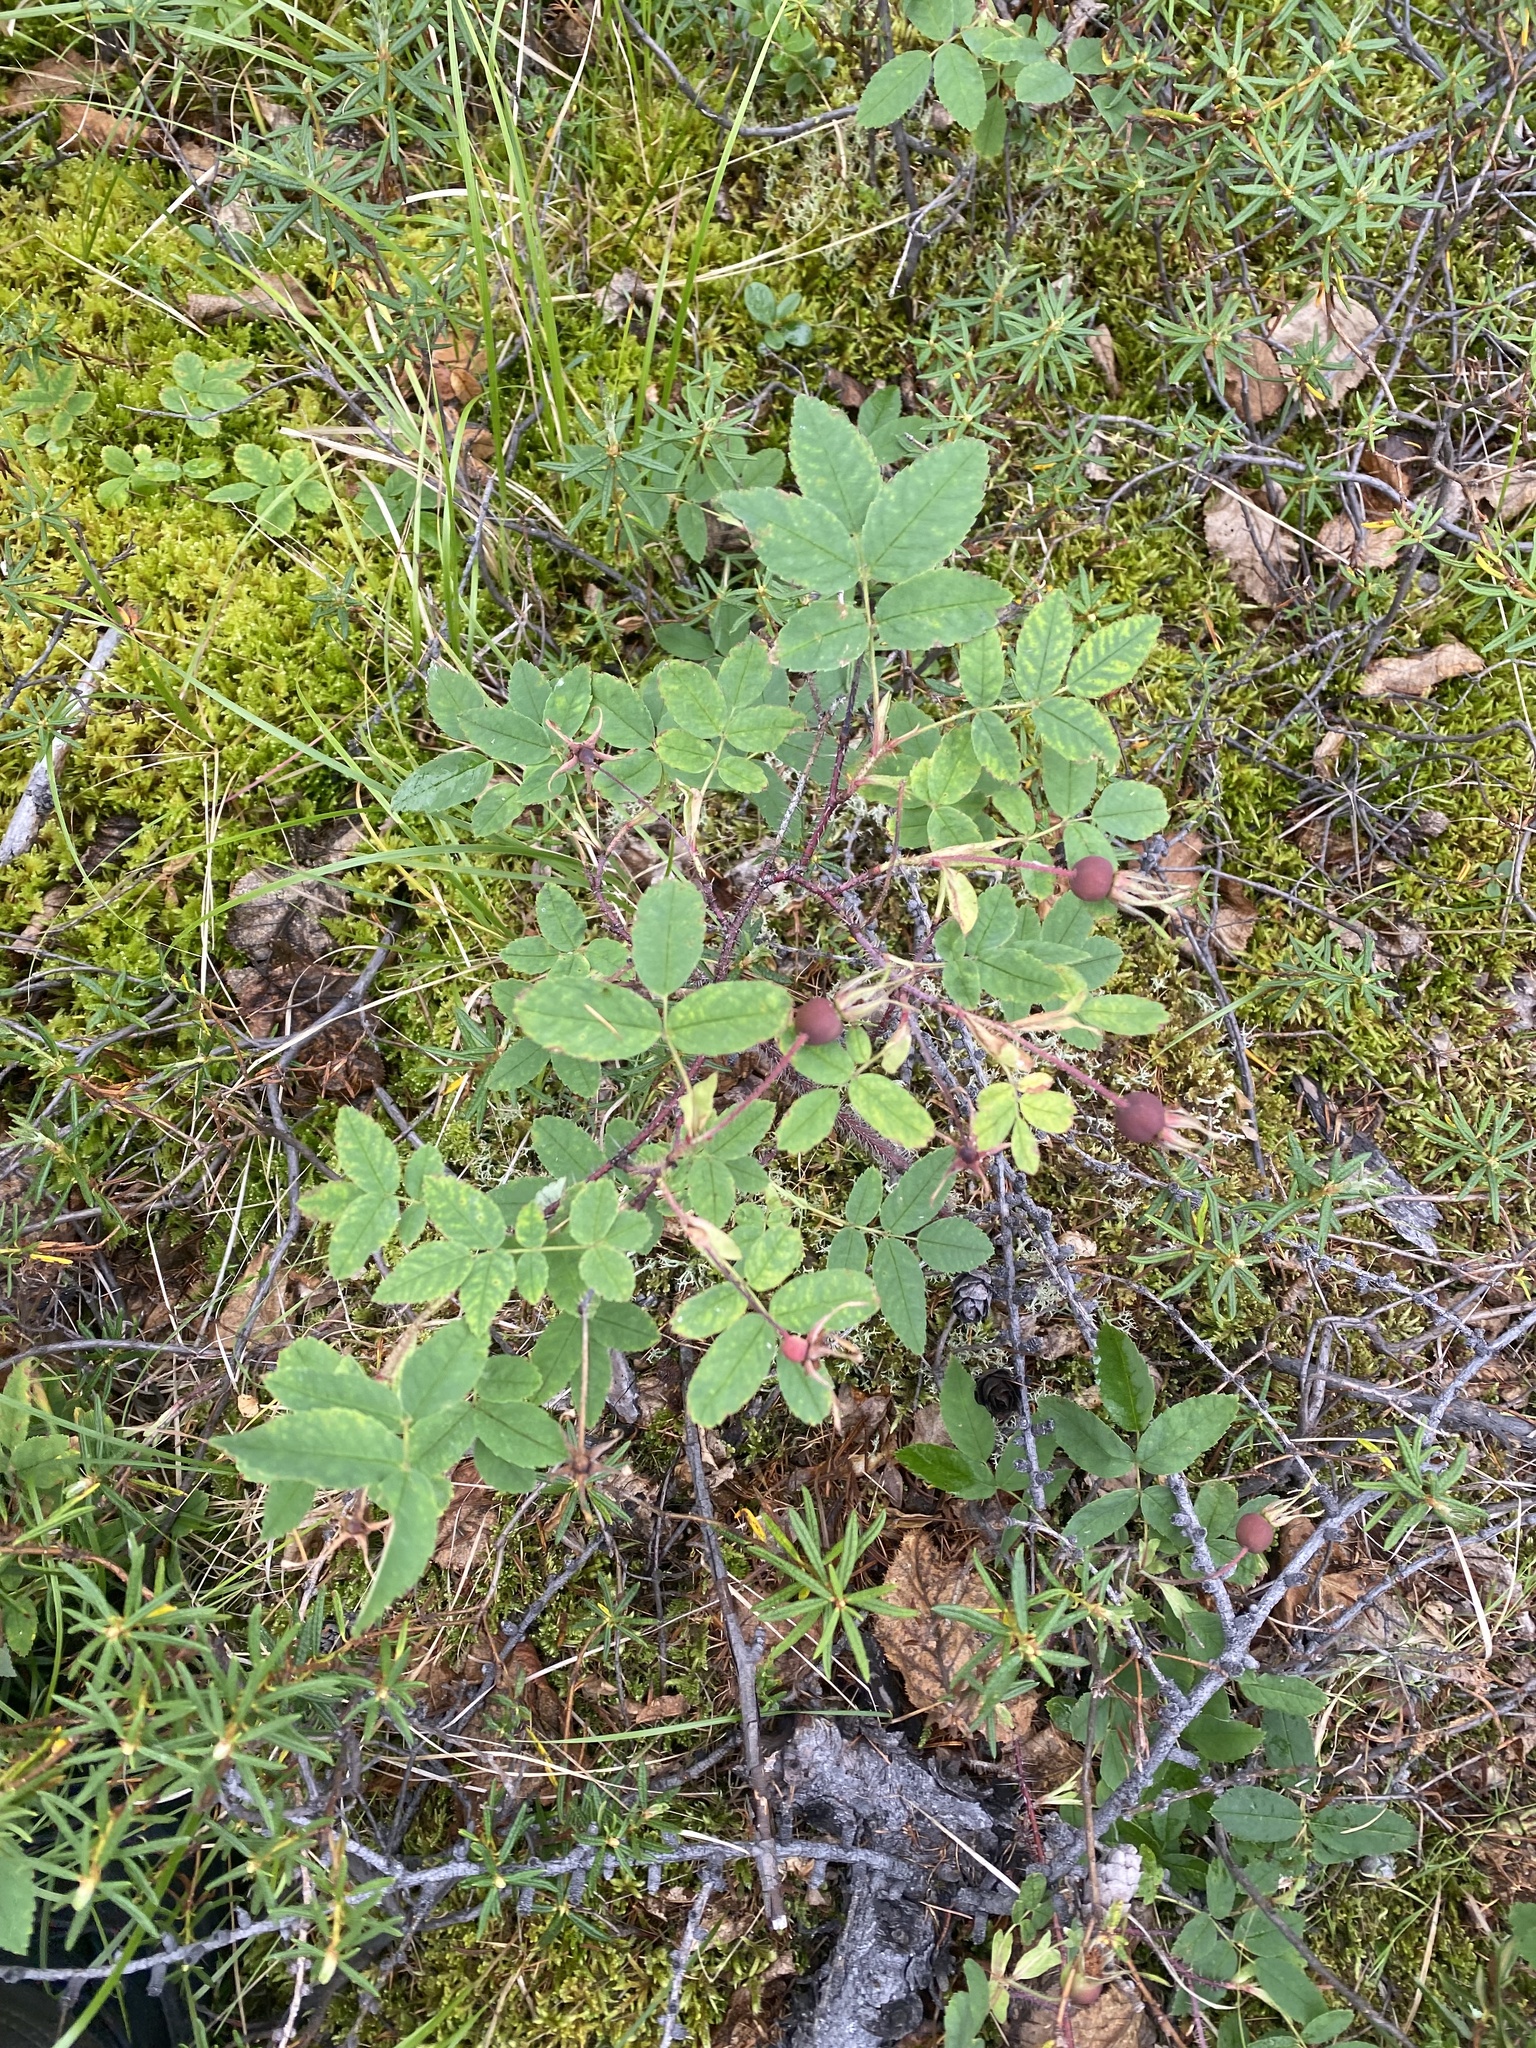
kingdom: Plantae
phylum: Tracheophyta
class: Magnoliopsida
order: Rosales
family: Rosaceae
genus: Rosa
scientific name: Rosa acicularis
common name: Prickly rose
